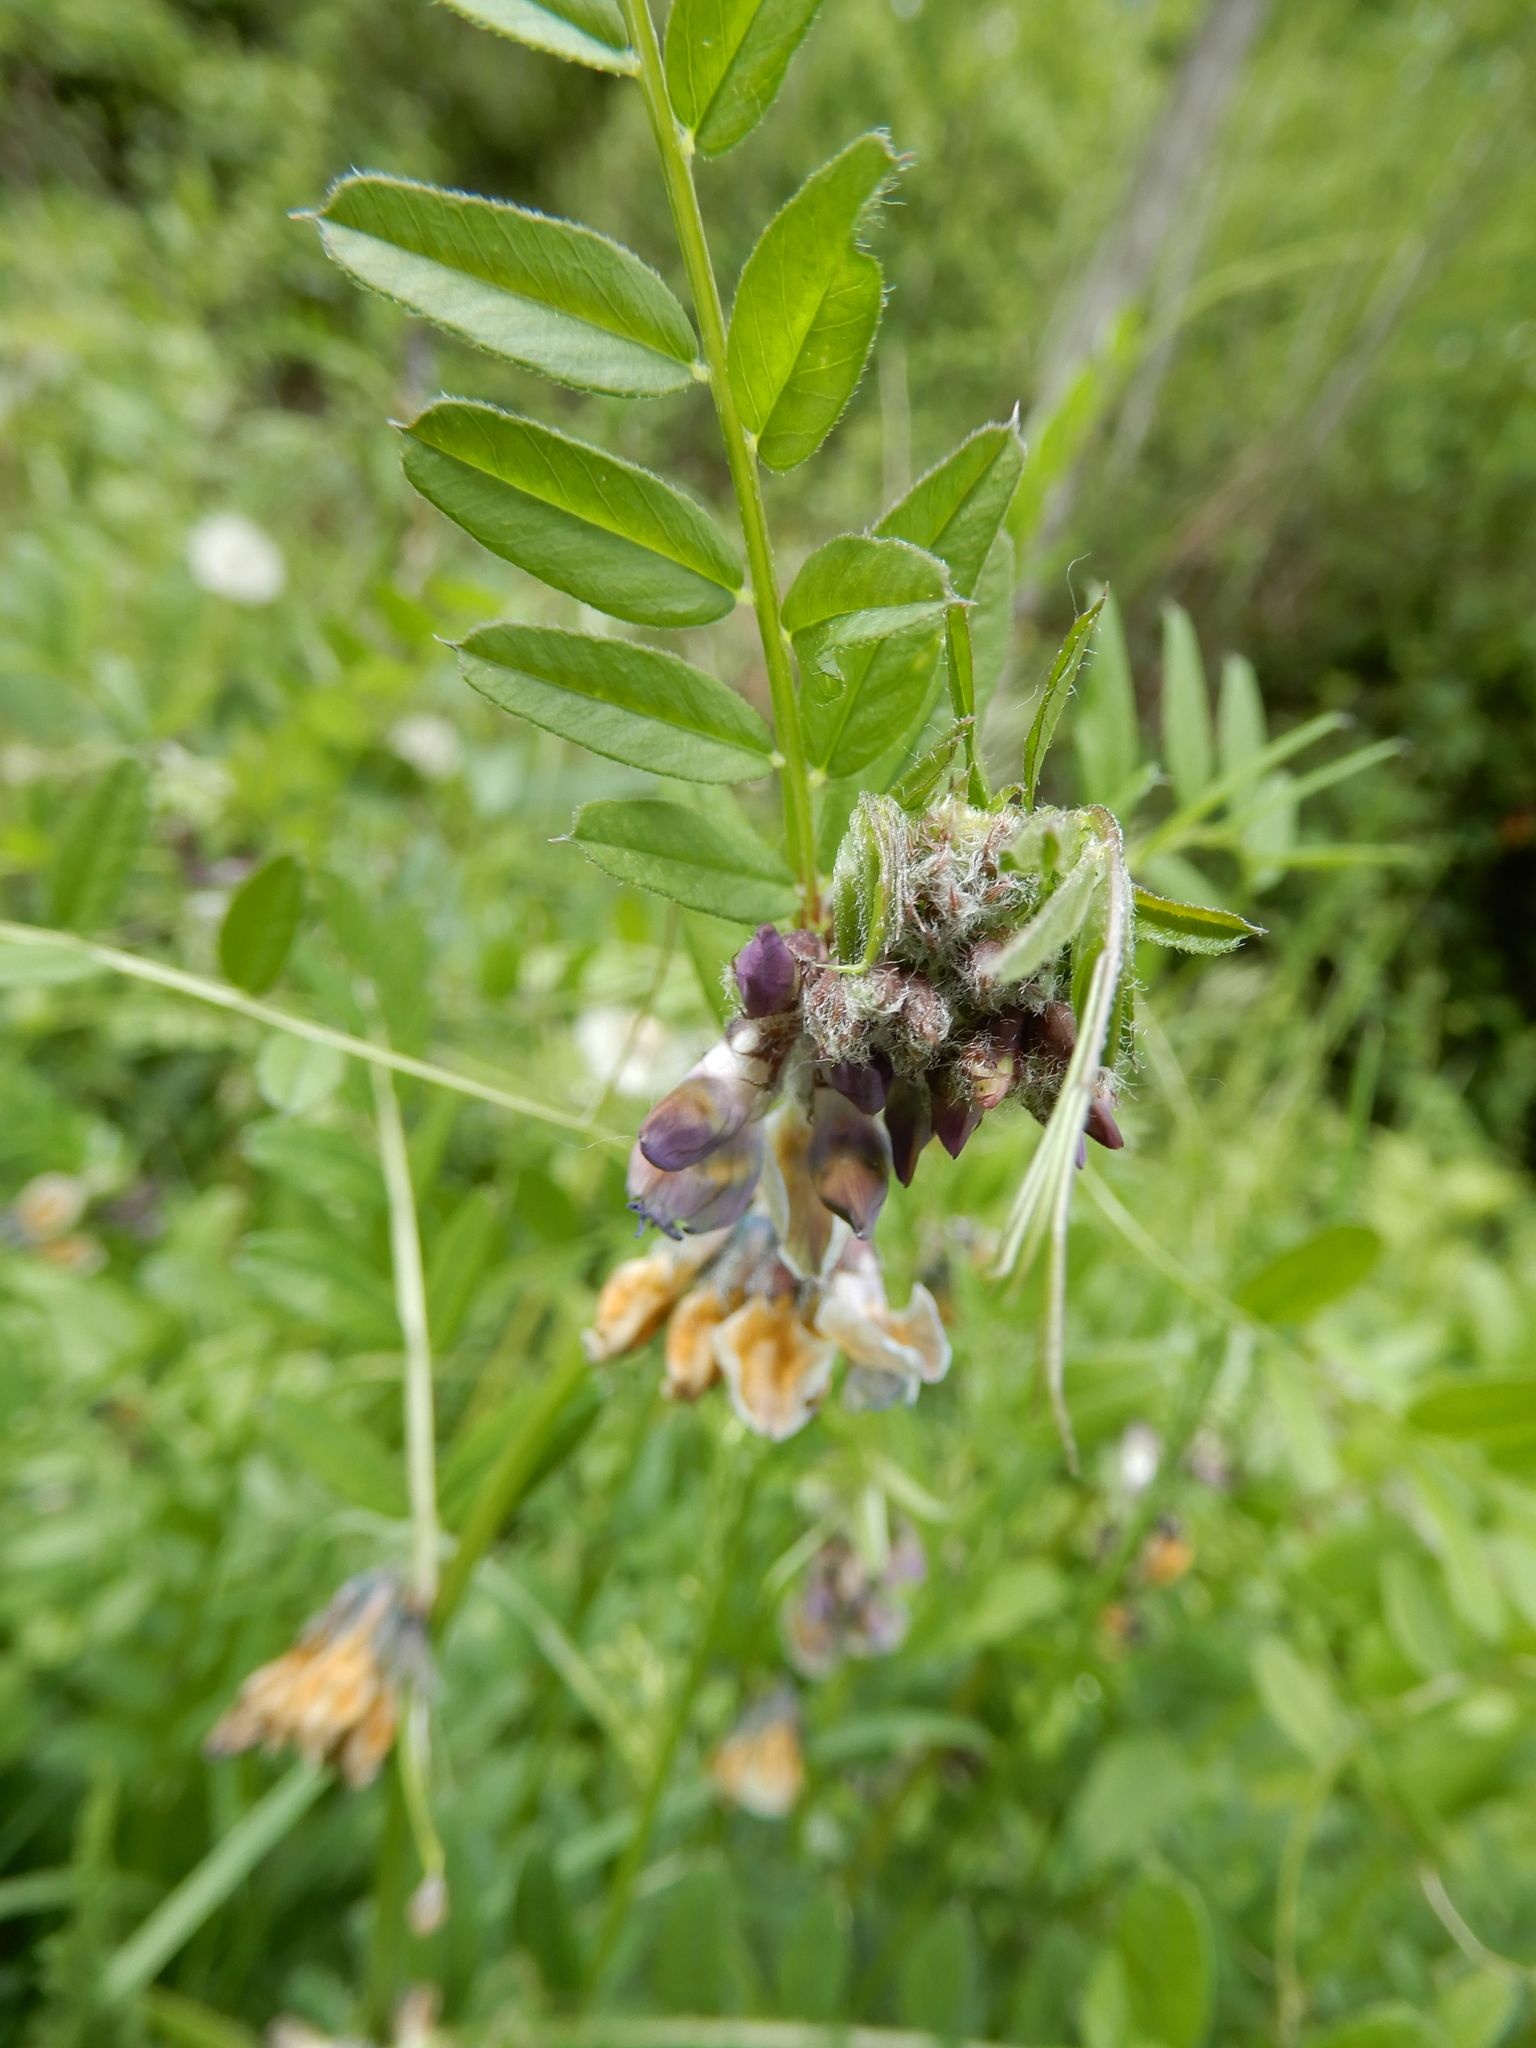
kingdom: Plantae
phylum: Tracheophyta
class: Magnoliopsida
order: Fabales
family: Fabaceae
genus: Vicia
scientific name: Vicia sepium
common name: Bush vetch
